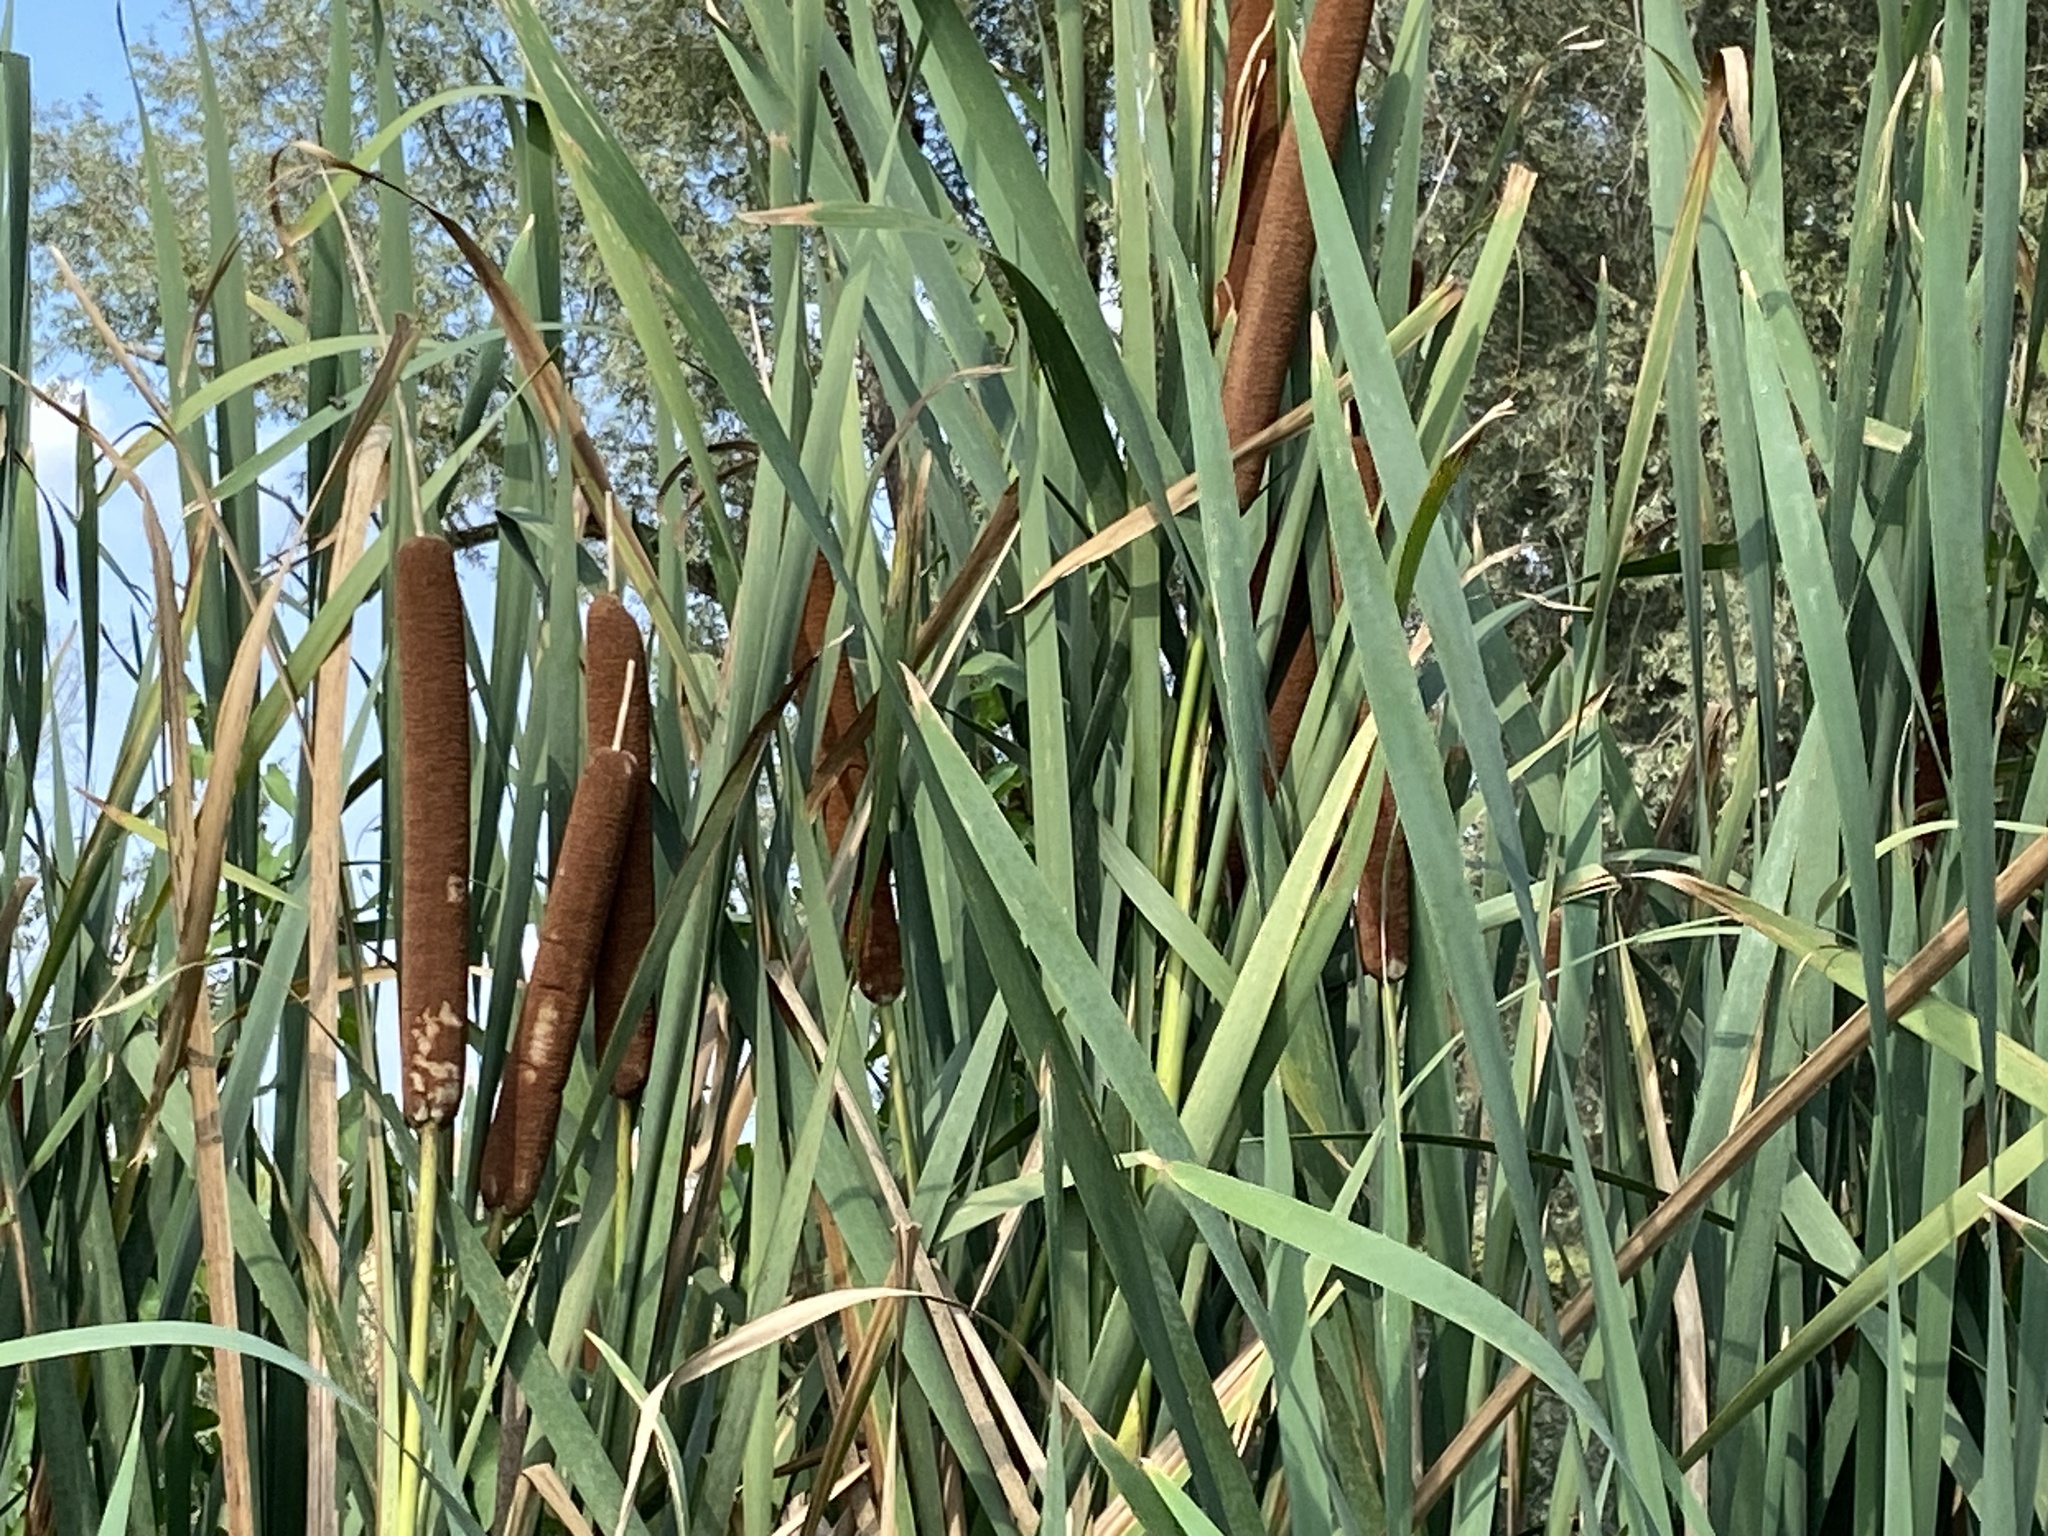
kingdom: Plantae
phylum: Tracheophyta
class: Liliopsida
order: Poales
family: Typhaceae
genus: Typha
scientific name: Typha latifolia
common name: Broadleaf cattail
